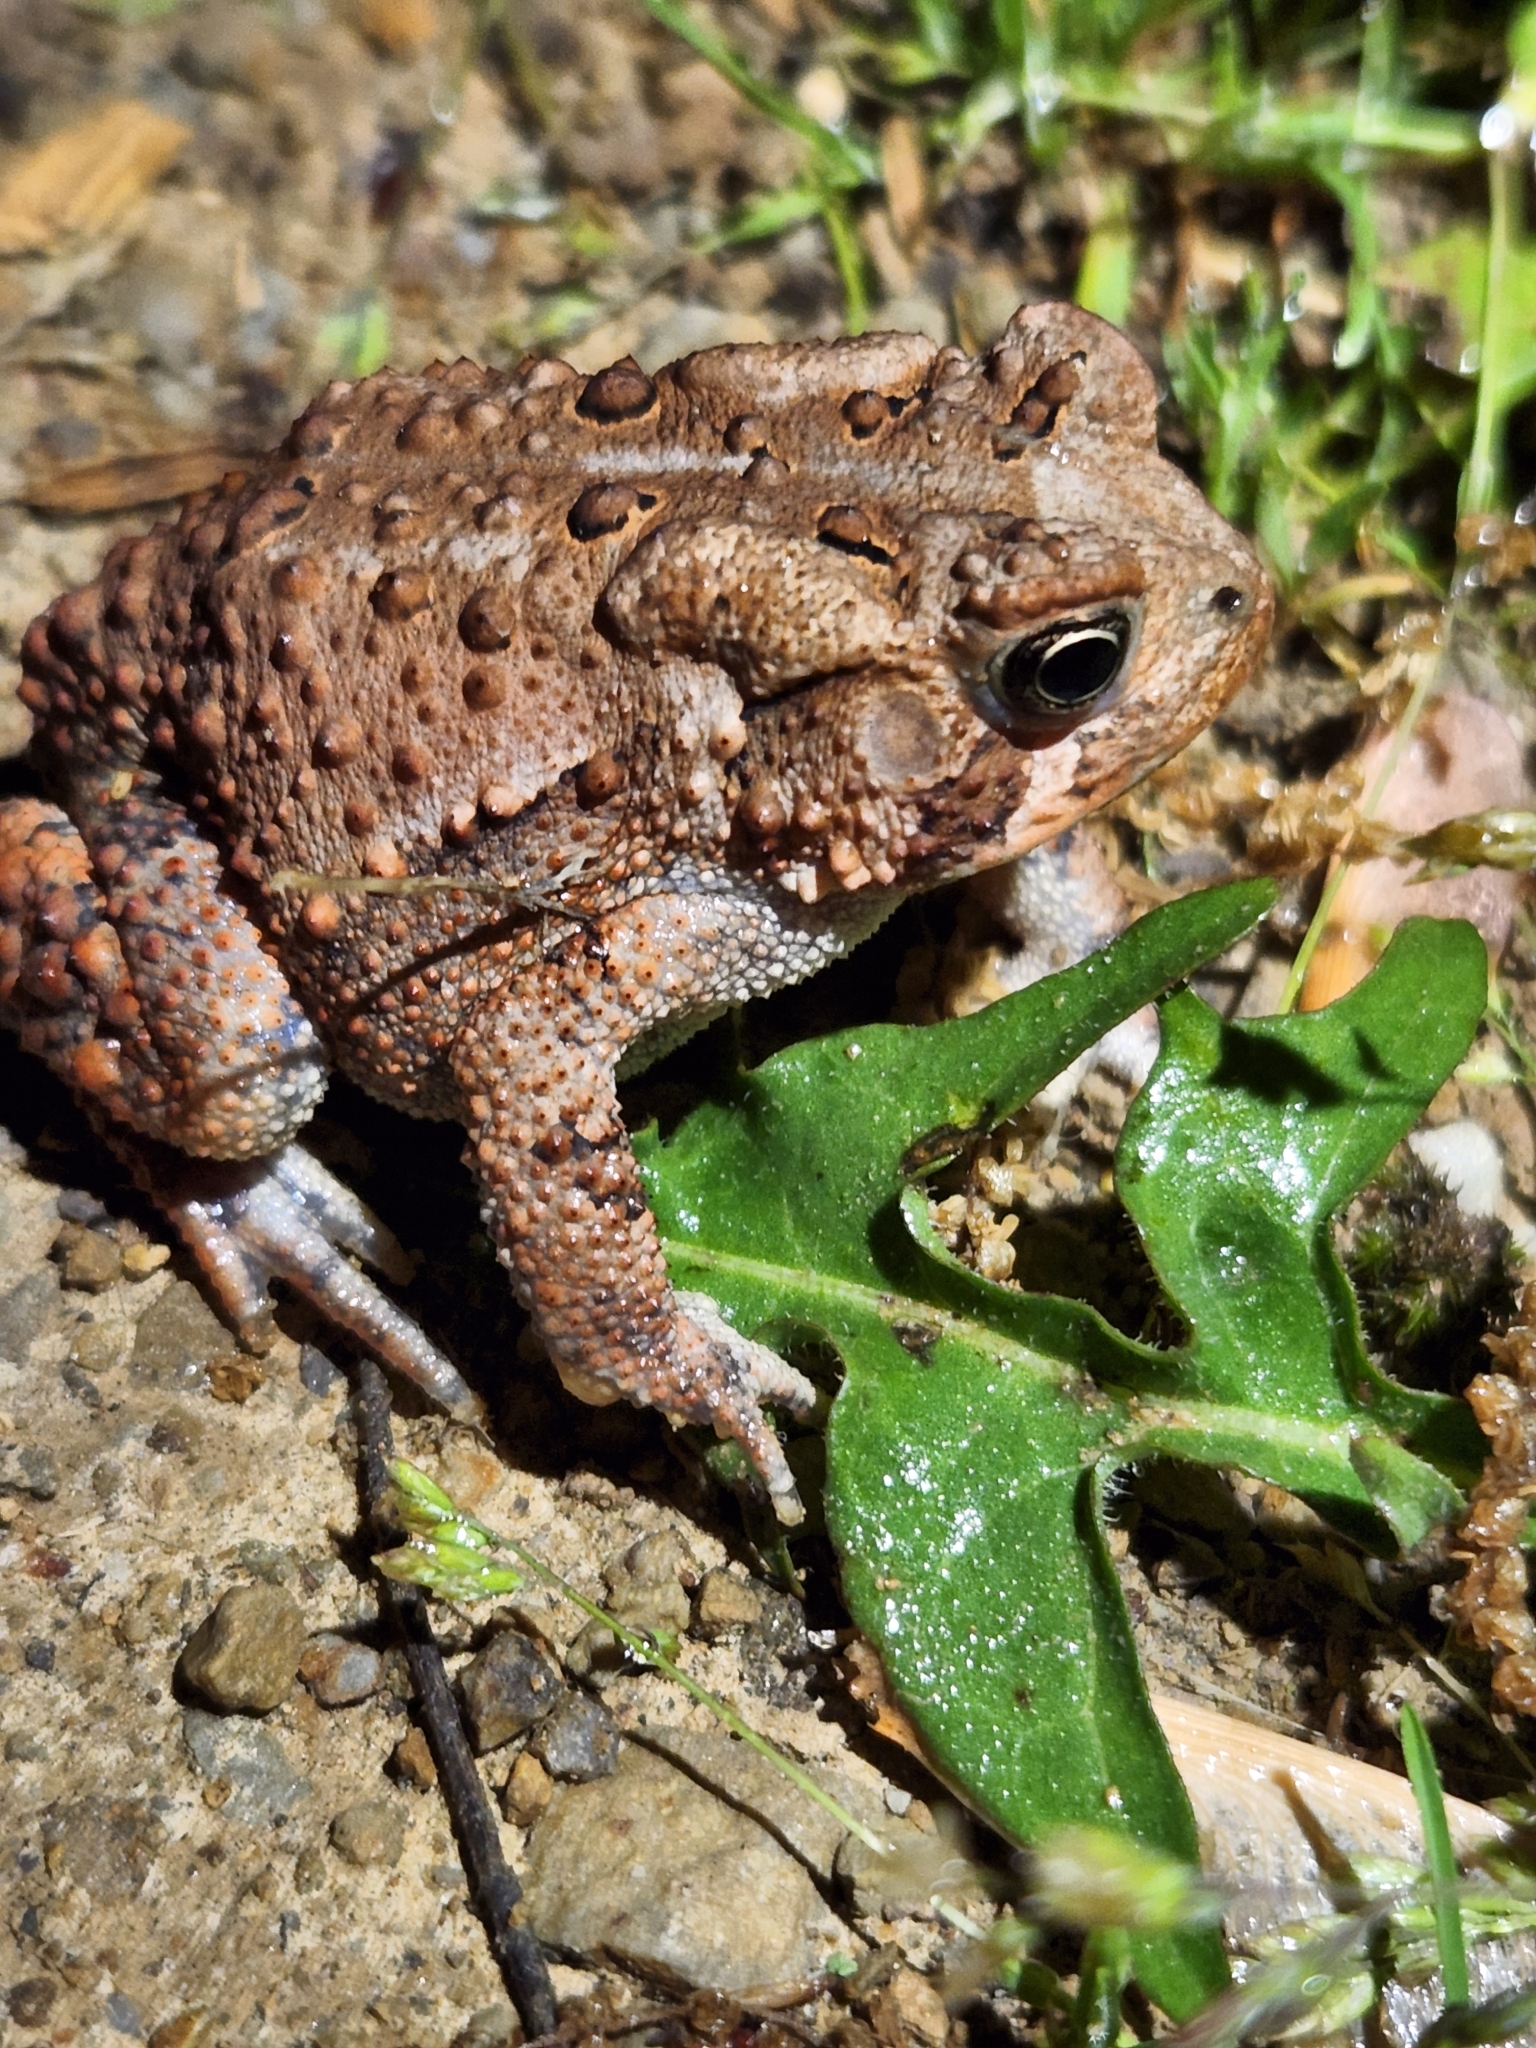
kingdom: Animalia
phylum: Chordata
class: Amphibia
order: Anura
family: Bufonidae
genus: Anaxyrus
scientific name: Anaxyrus americanus
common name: American toad
